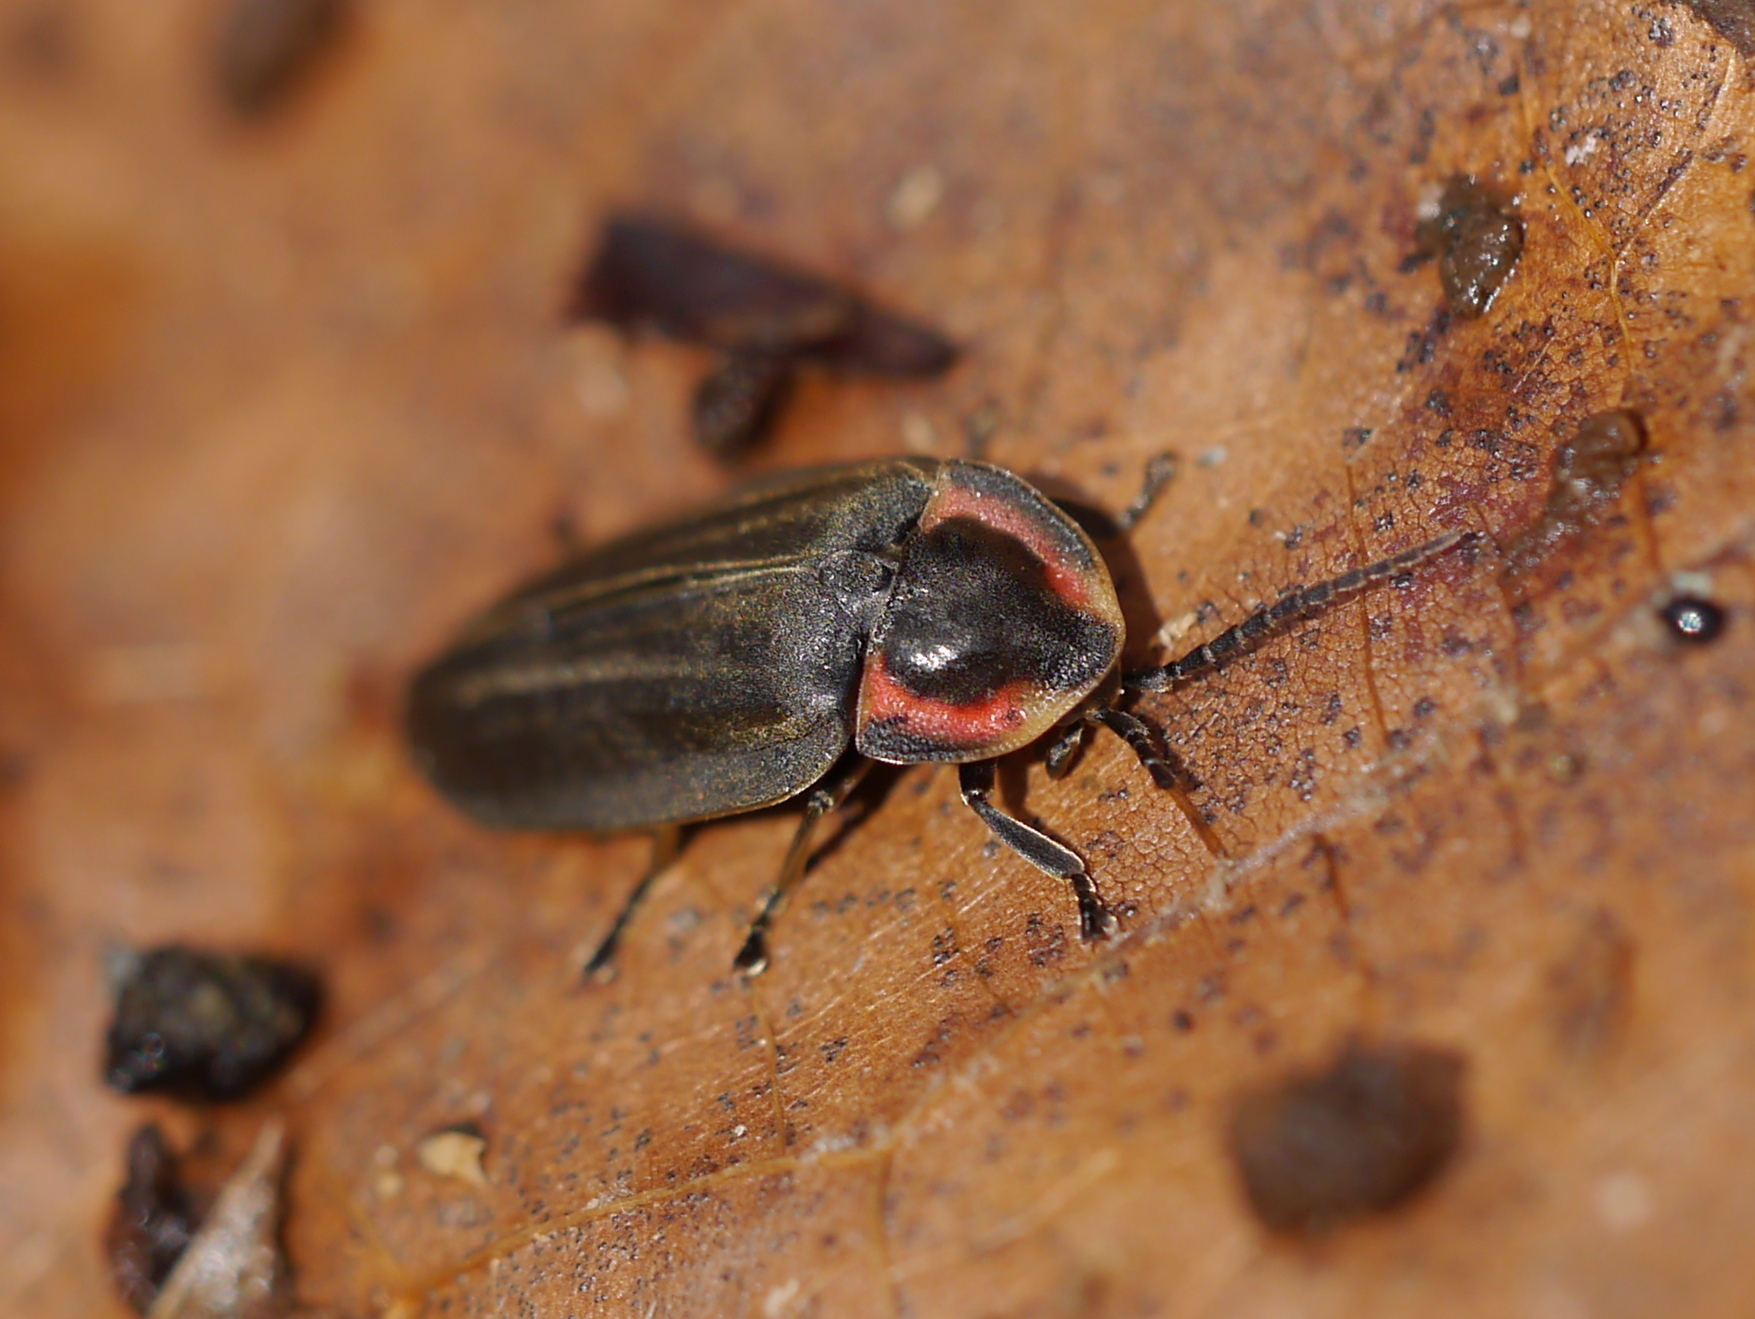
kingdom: Animalia
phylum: Arthropoda
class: Insecta
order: Coleoptera
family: Lampyridae
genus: Photinus
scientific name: Photinus corrusca
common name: Winter firefly
